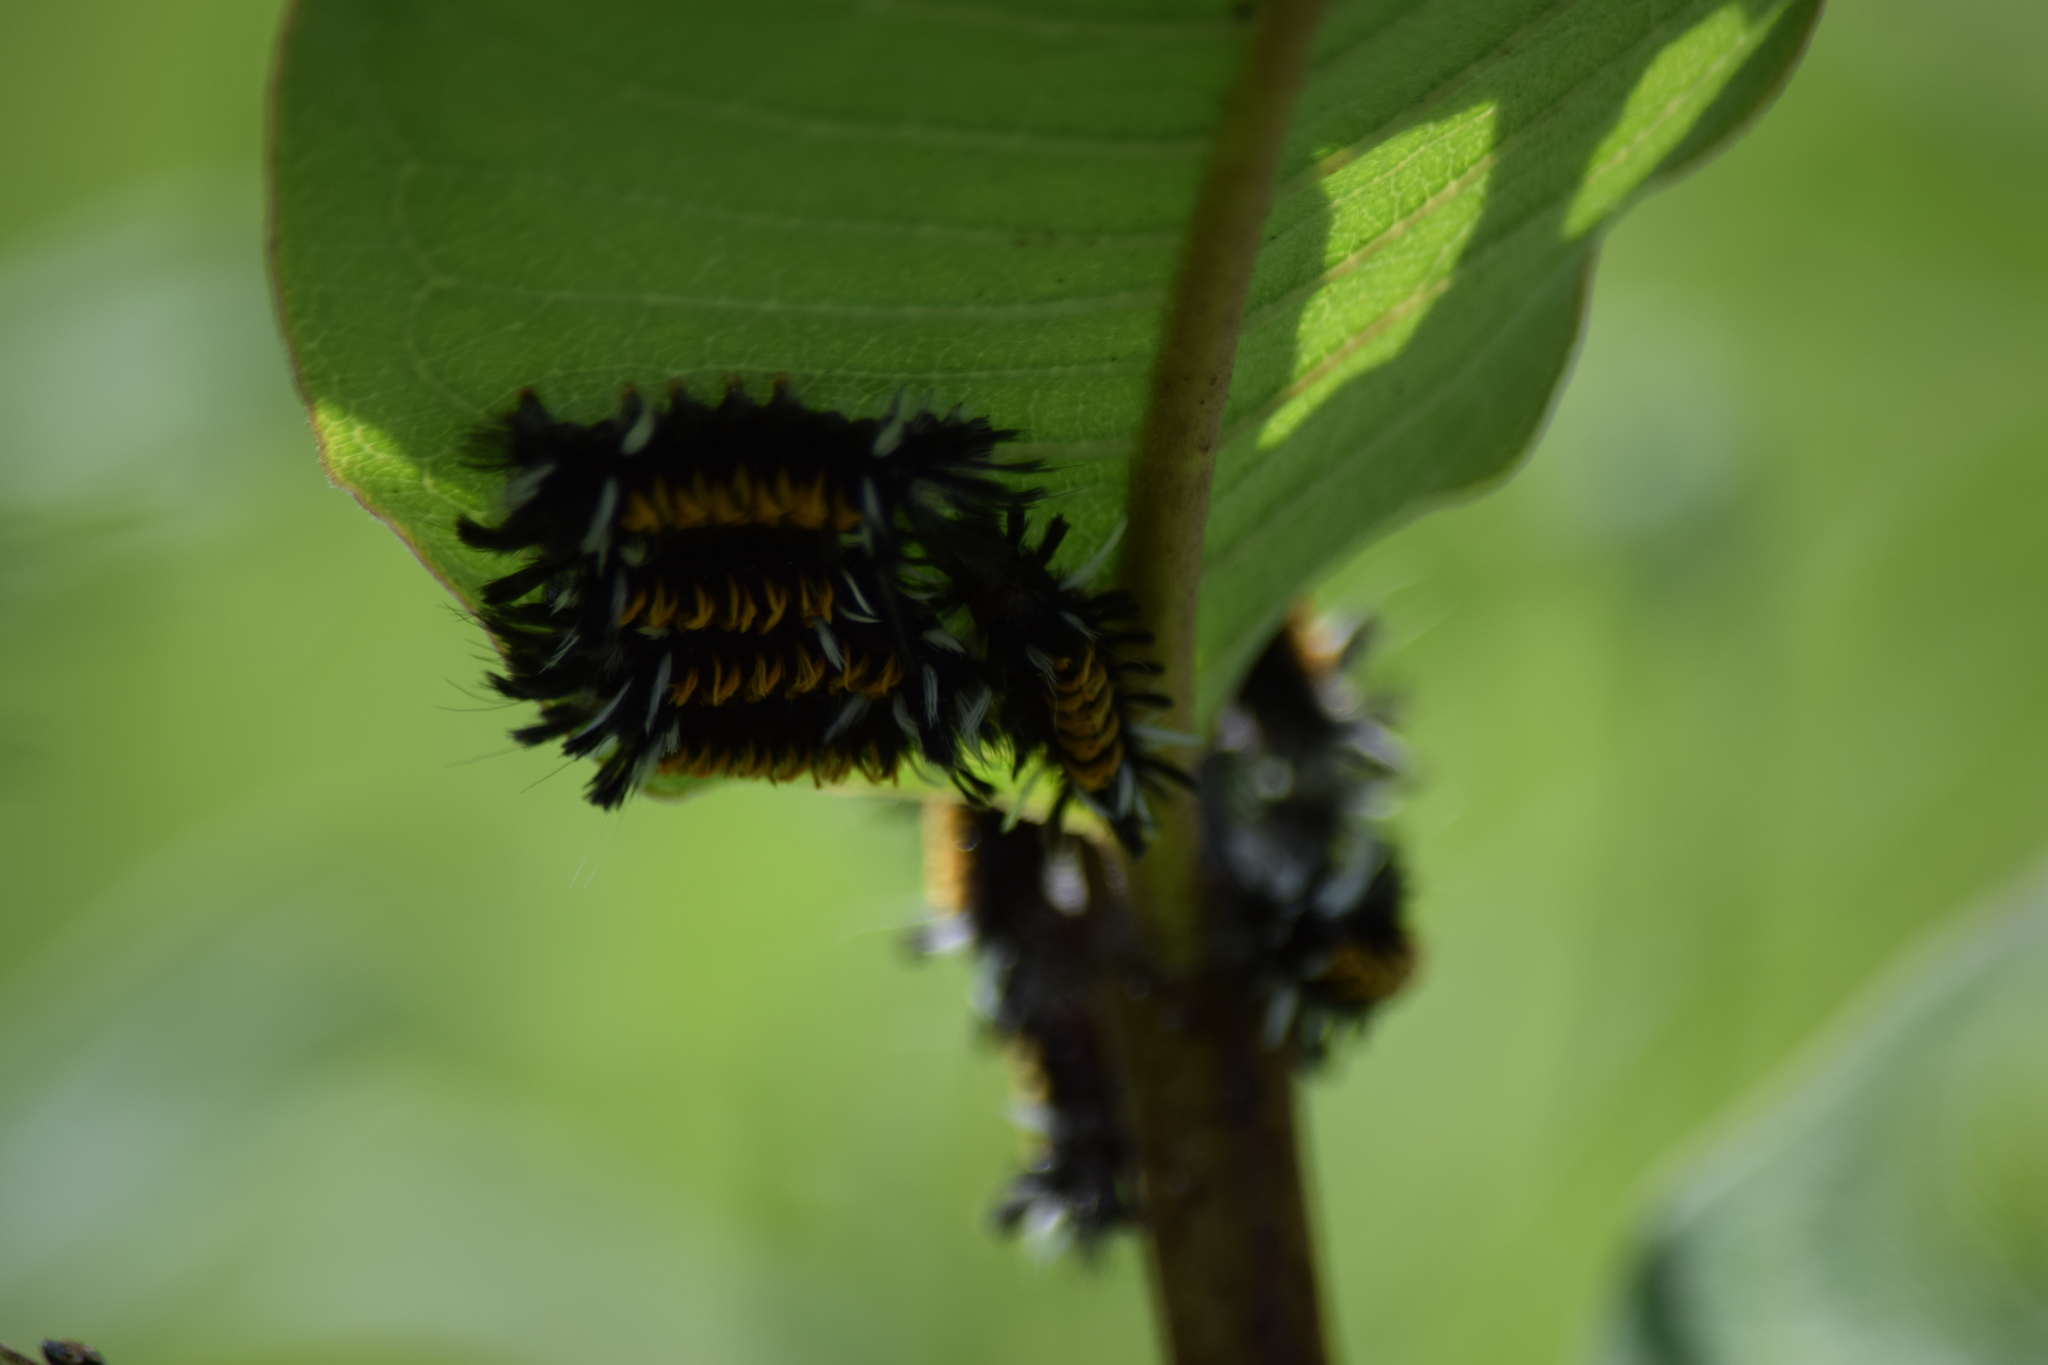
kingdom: Animalia
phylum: Arthropoda
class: Insecta
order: Lepidoptera
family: Erebidae
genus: Euchaetes
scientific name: Euchaetes egle
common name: Milkweed tussock moth
